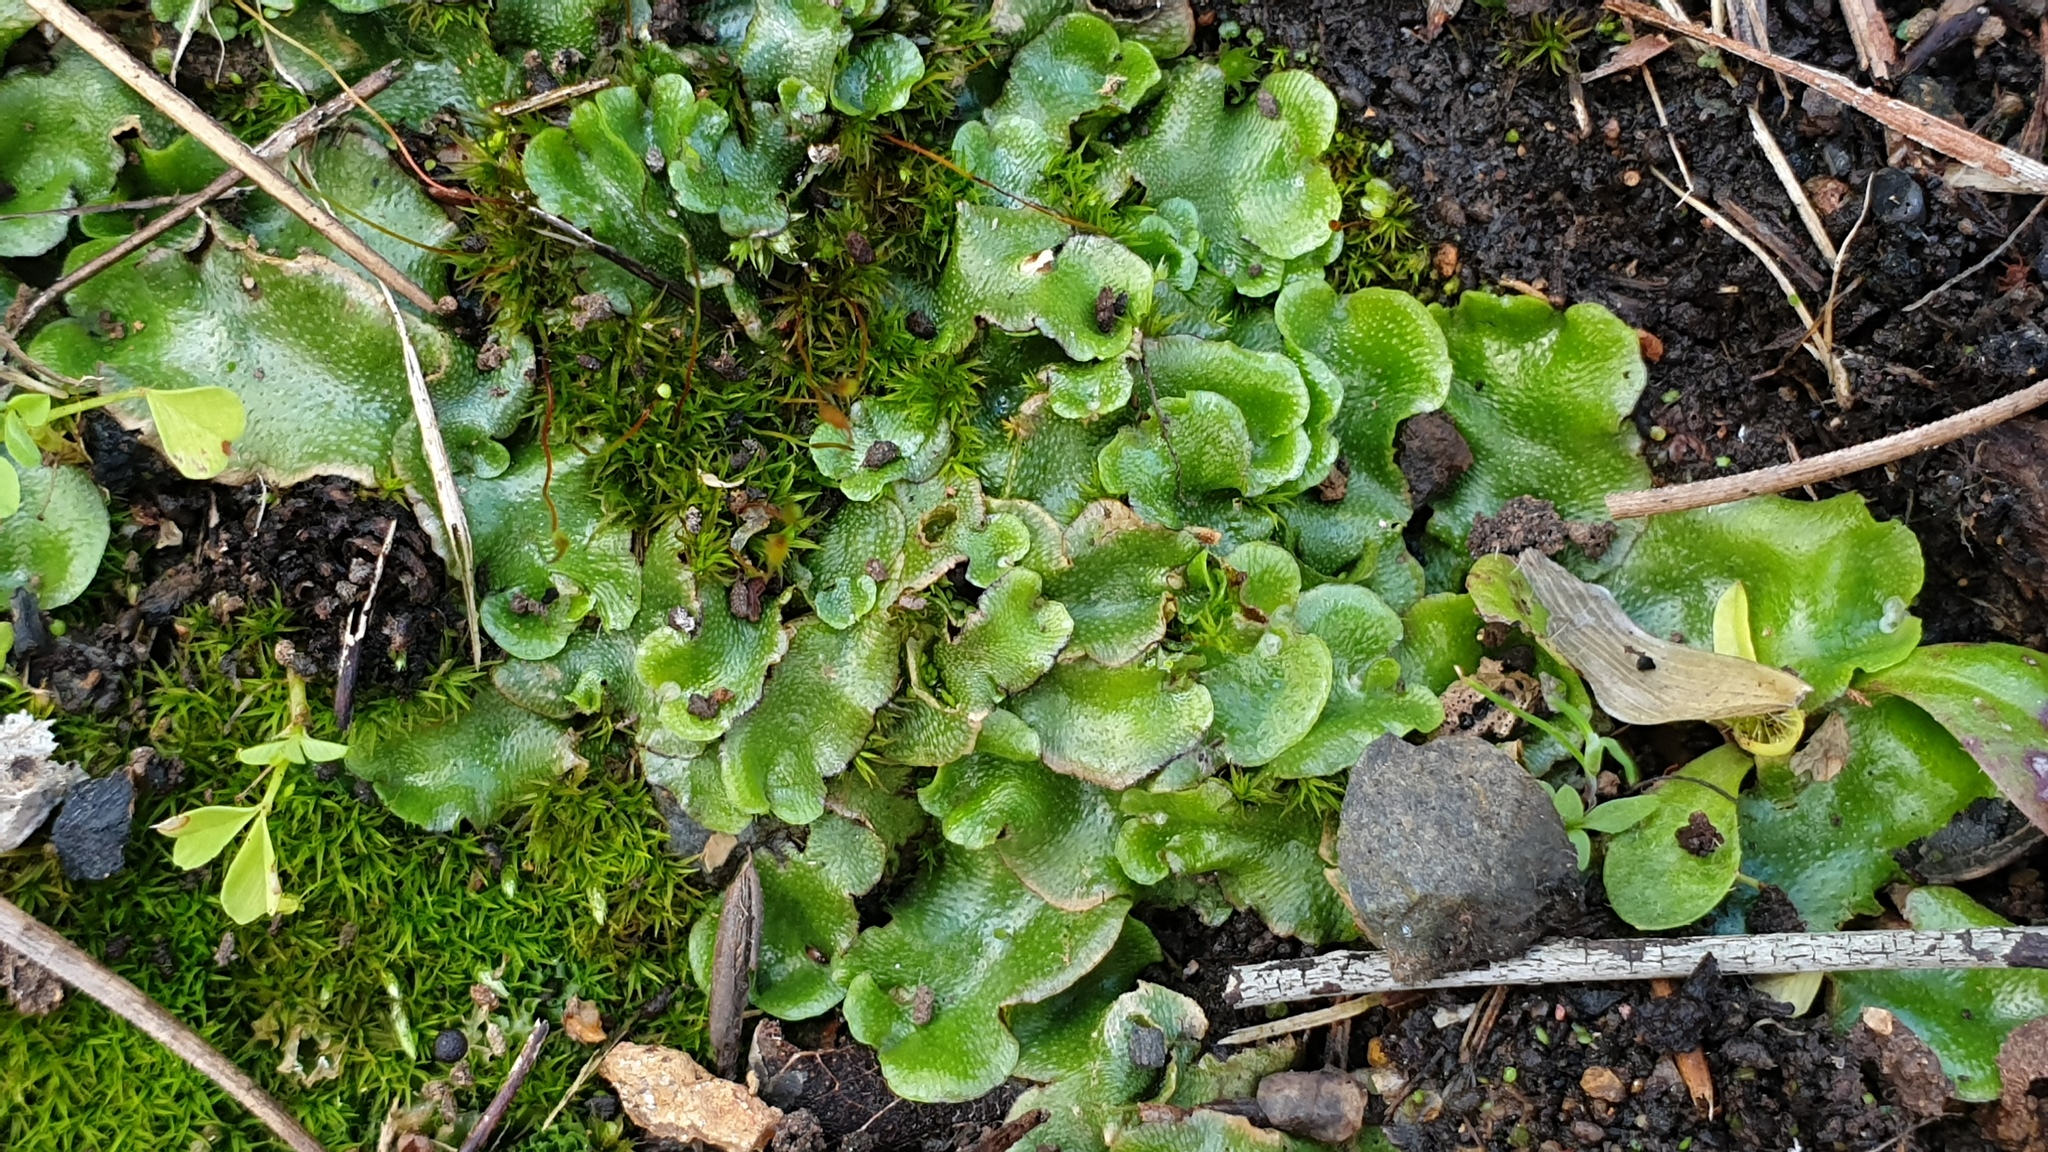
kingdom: Plantae
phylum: Marchantiophyta
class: Marchantiopsida
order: Lunulariales
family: Lunulariaceae
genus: Lunularia
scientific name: Lunularia cruciata
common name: Crescent-cup liverwort
